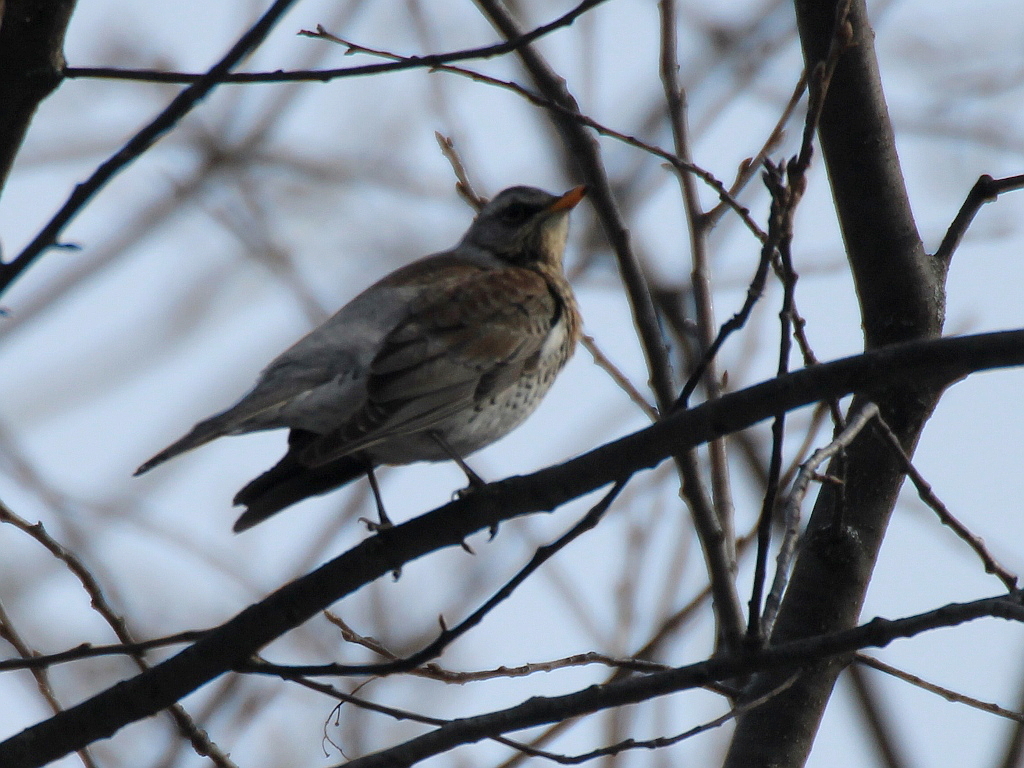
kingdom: Animalia
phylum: Chordata
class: Aves
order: Passeriformes
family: Turdidae
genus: Turdus
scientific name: Turdus pilaris
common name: Fieldfare
